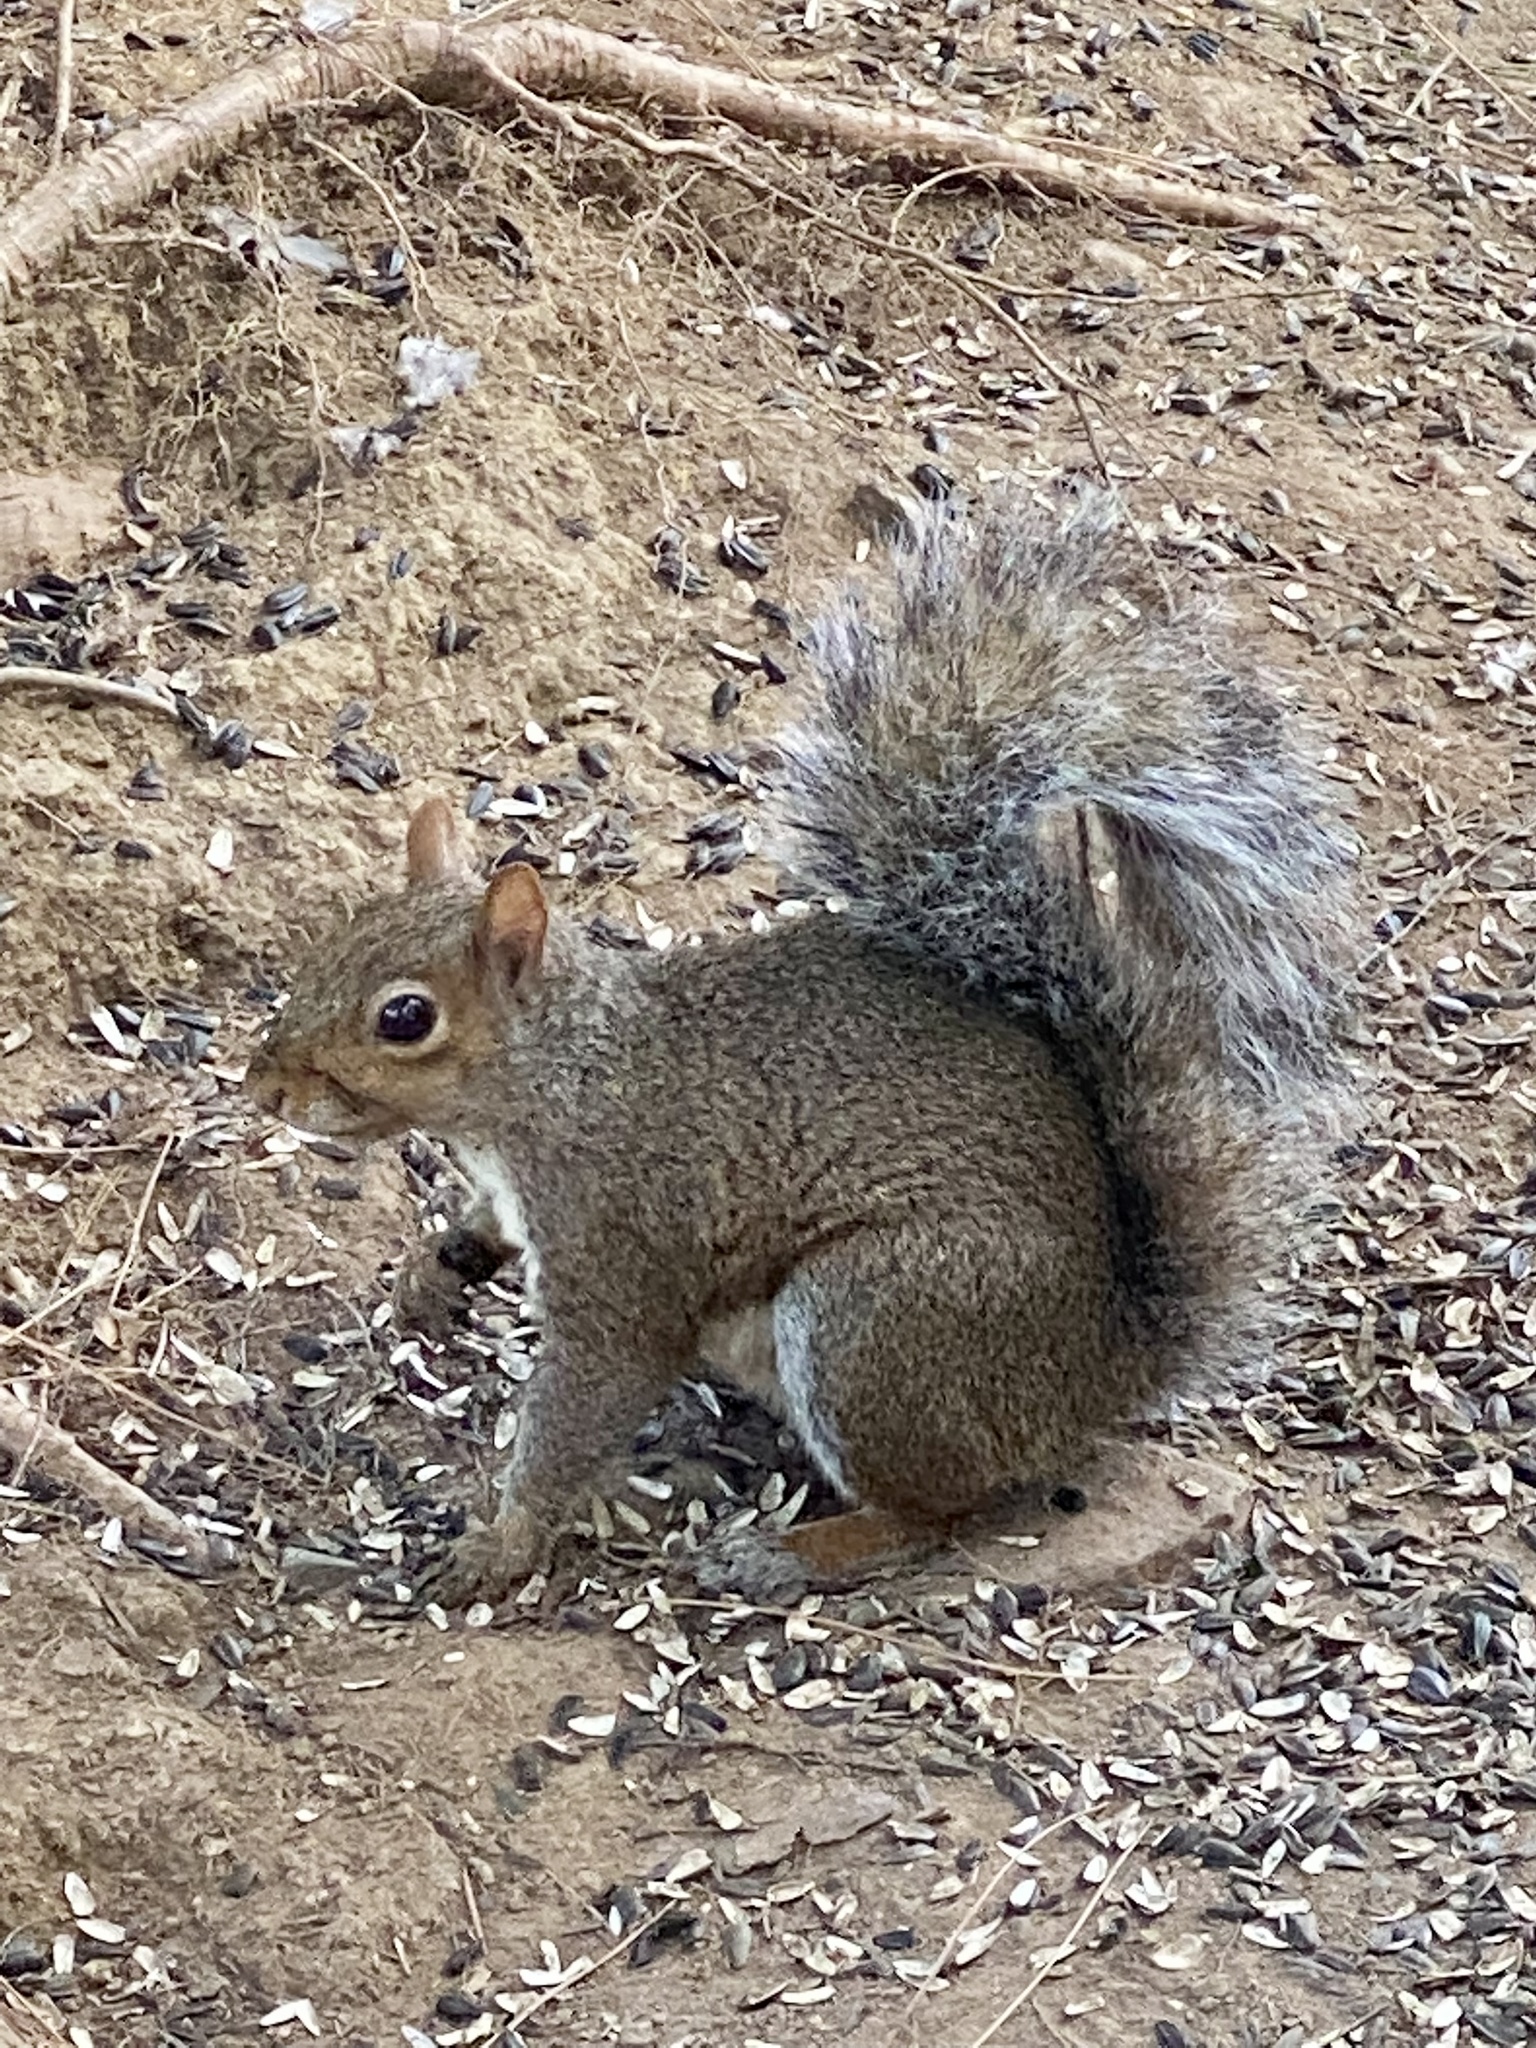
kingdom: Animalia
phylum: Chordata
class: Mammalia
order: Rodentia
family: Sciuridae
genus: Sciurus
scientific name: Sciurus carolinensis
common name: Eastern gray squirrel
